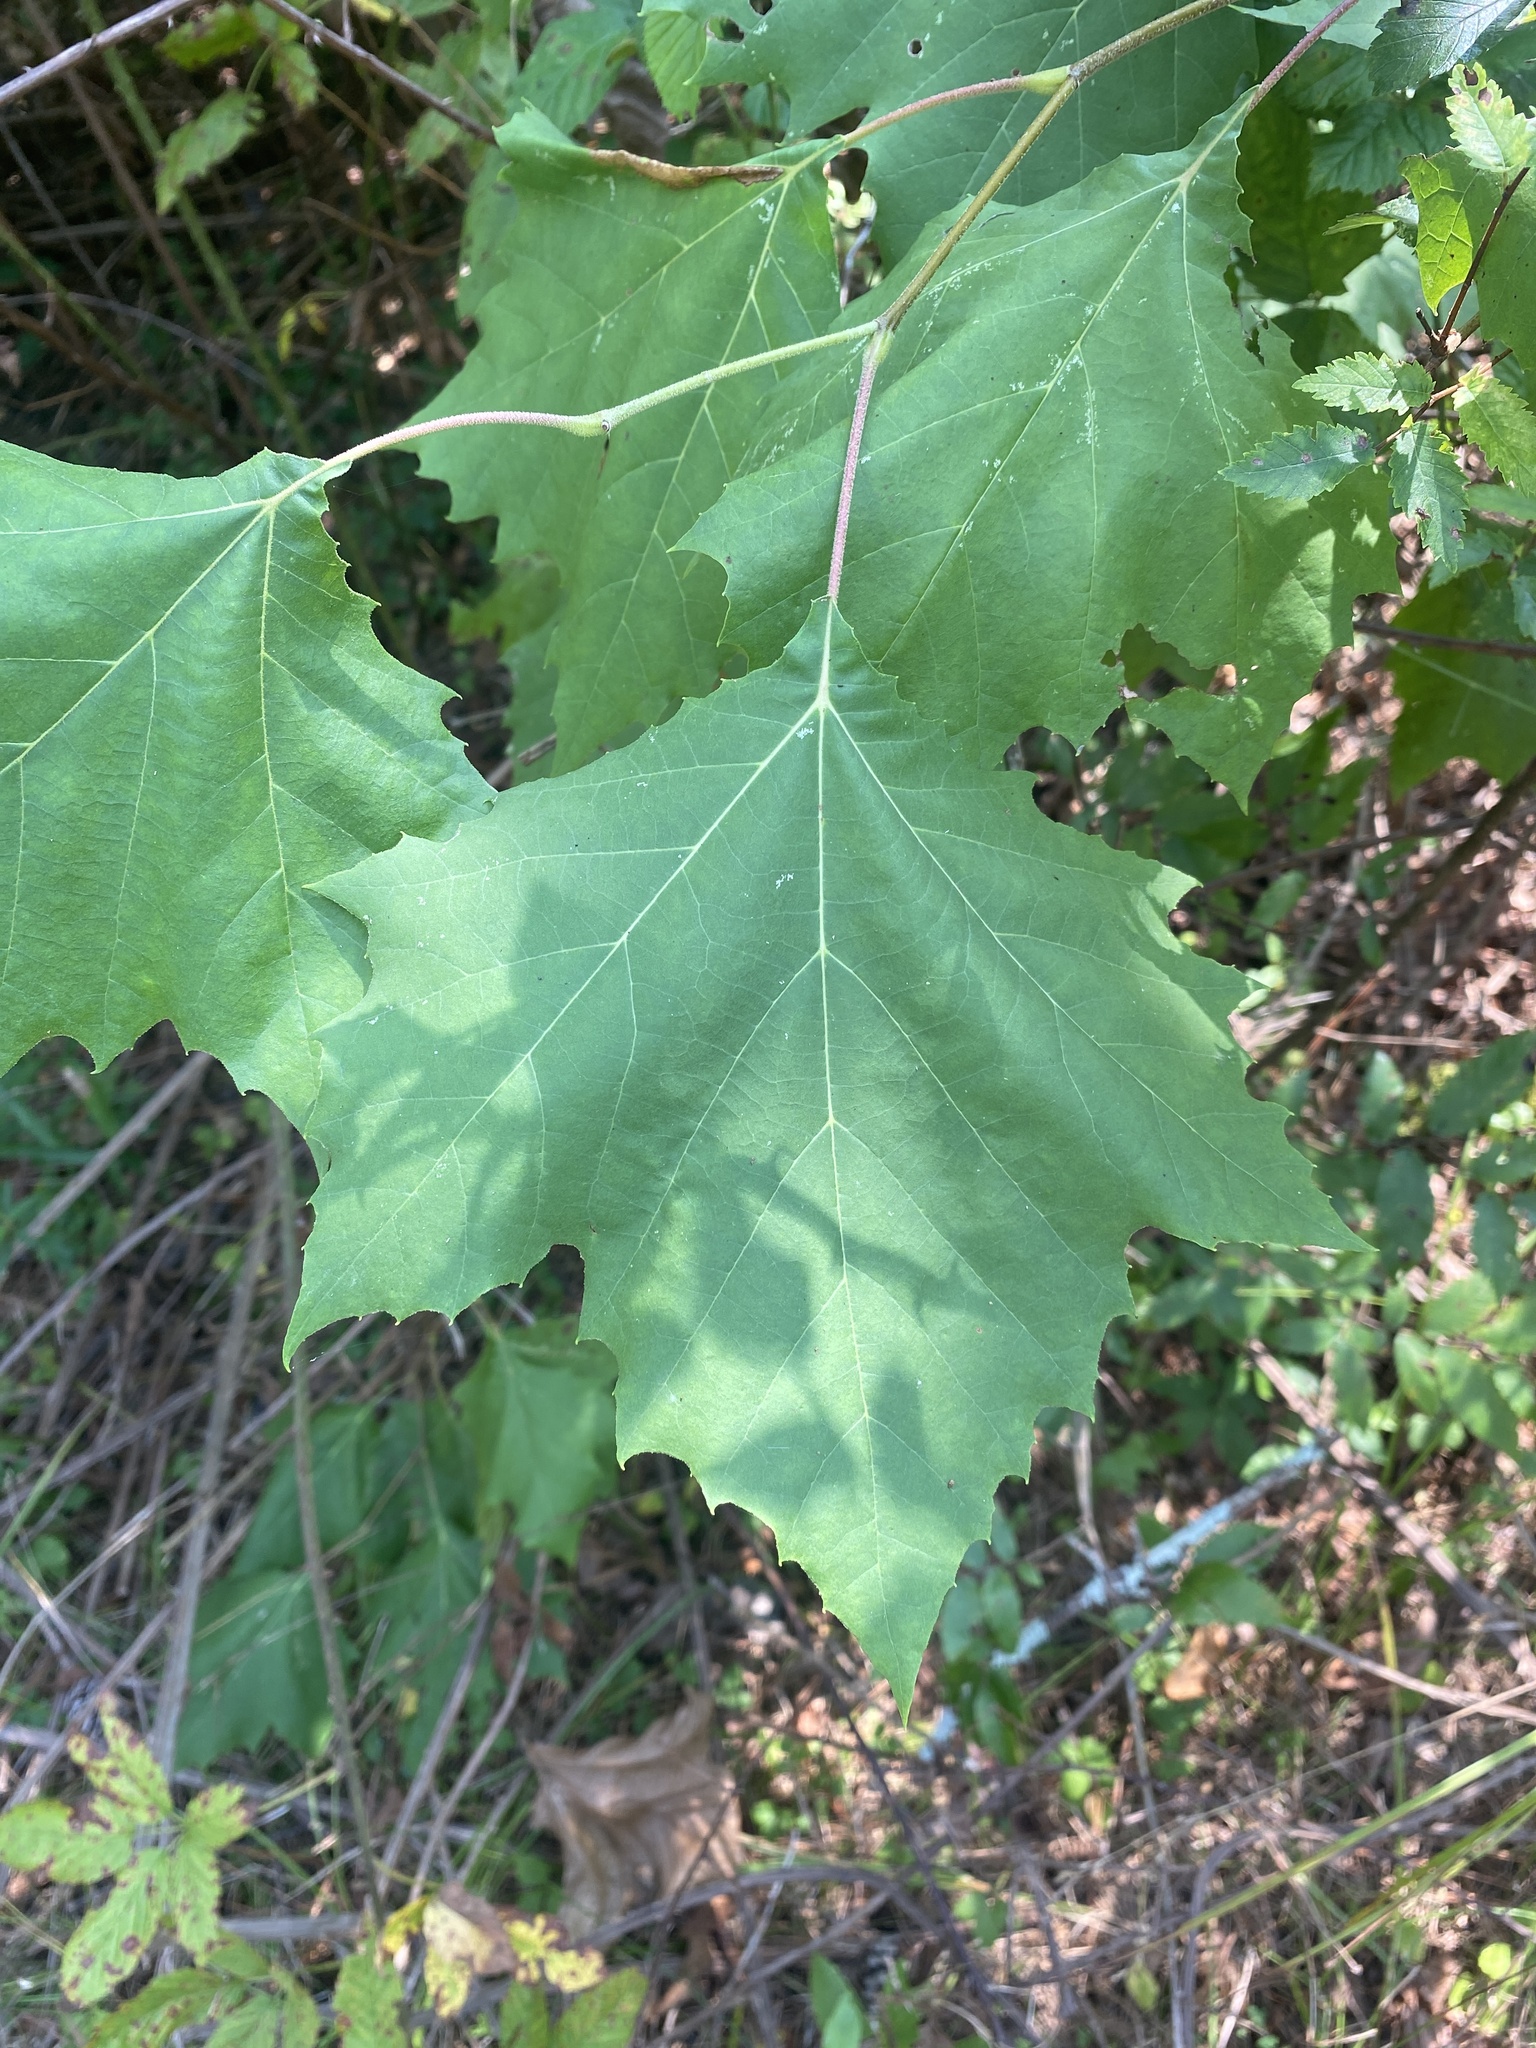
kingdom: Plantae
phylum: Tracheophyta
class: Magnoliopsida
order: Proteales
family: Platanaceae
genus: Platanus
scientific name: Platanus occidentalis
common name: American sycamore
